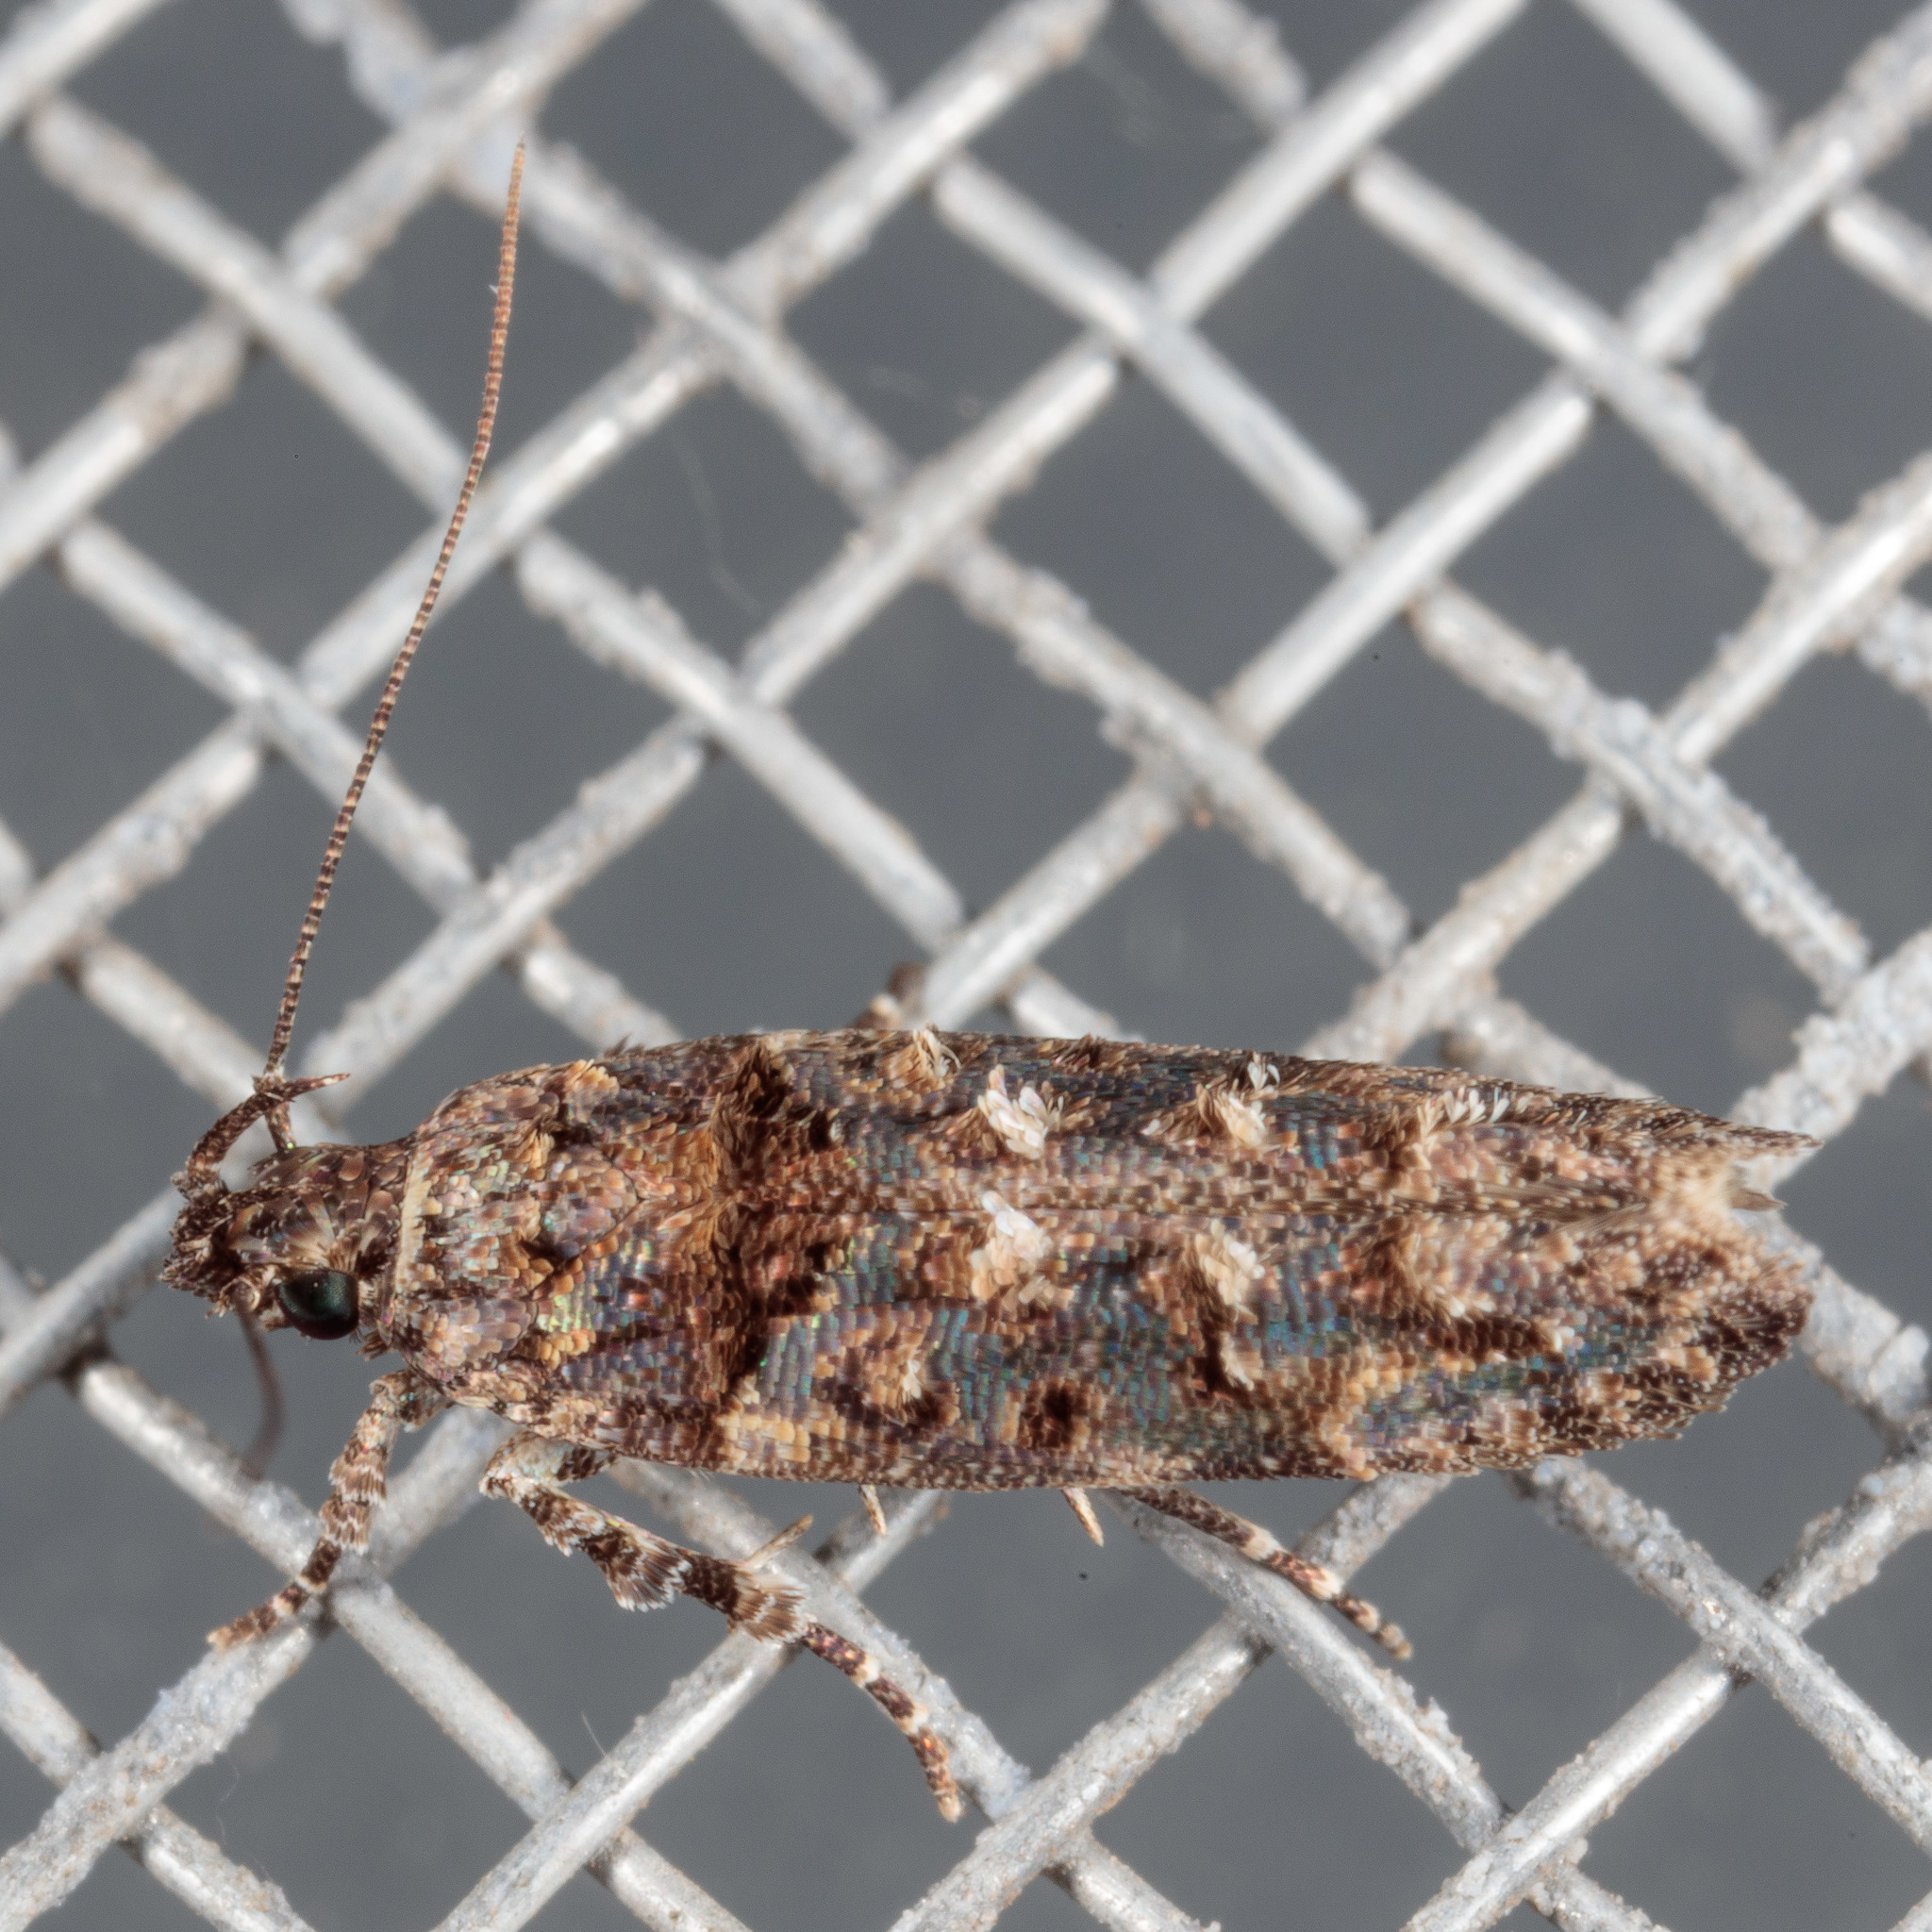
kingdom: Animalia
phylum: Arthropoda
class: Insecta
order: Lepidoptera
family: Gelechiidae
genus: Telphusa
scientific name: Telphusa perspicua
